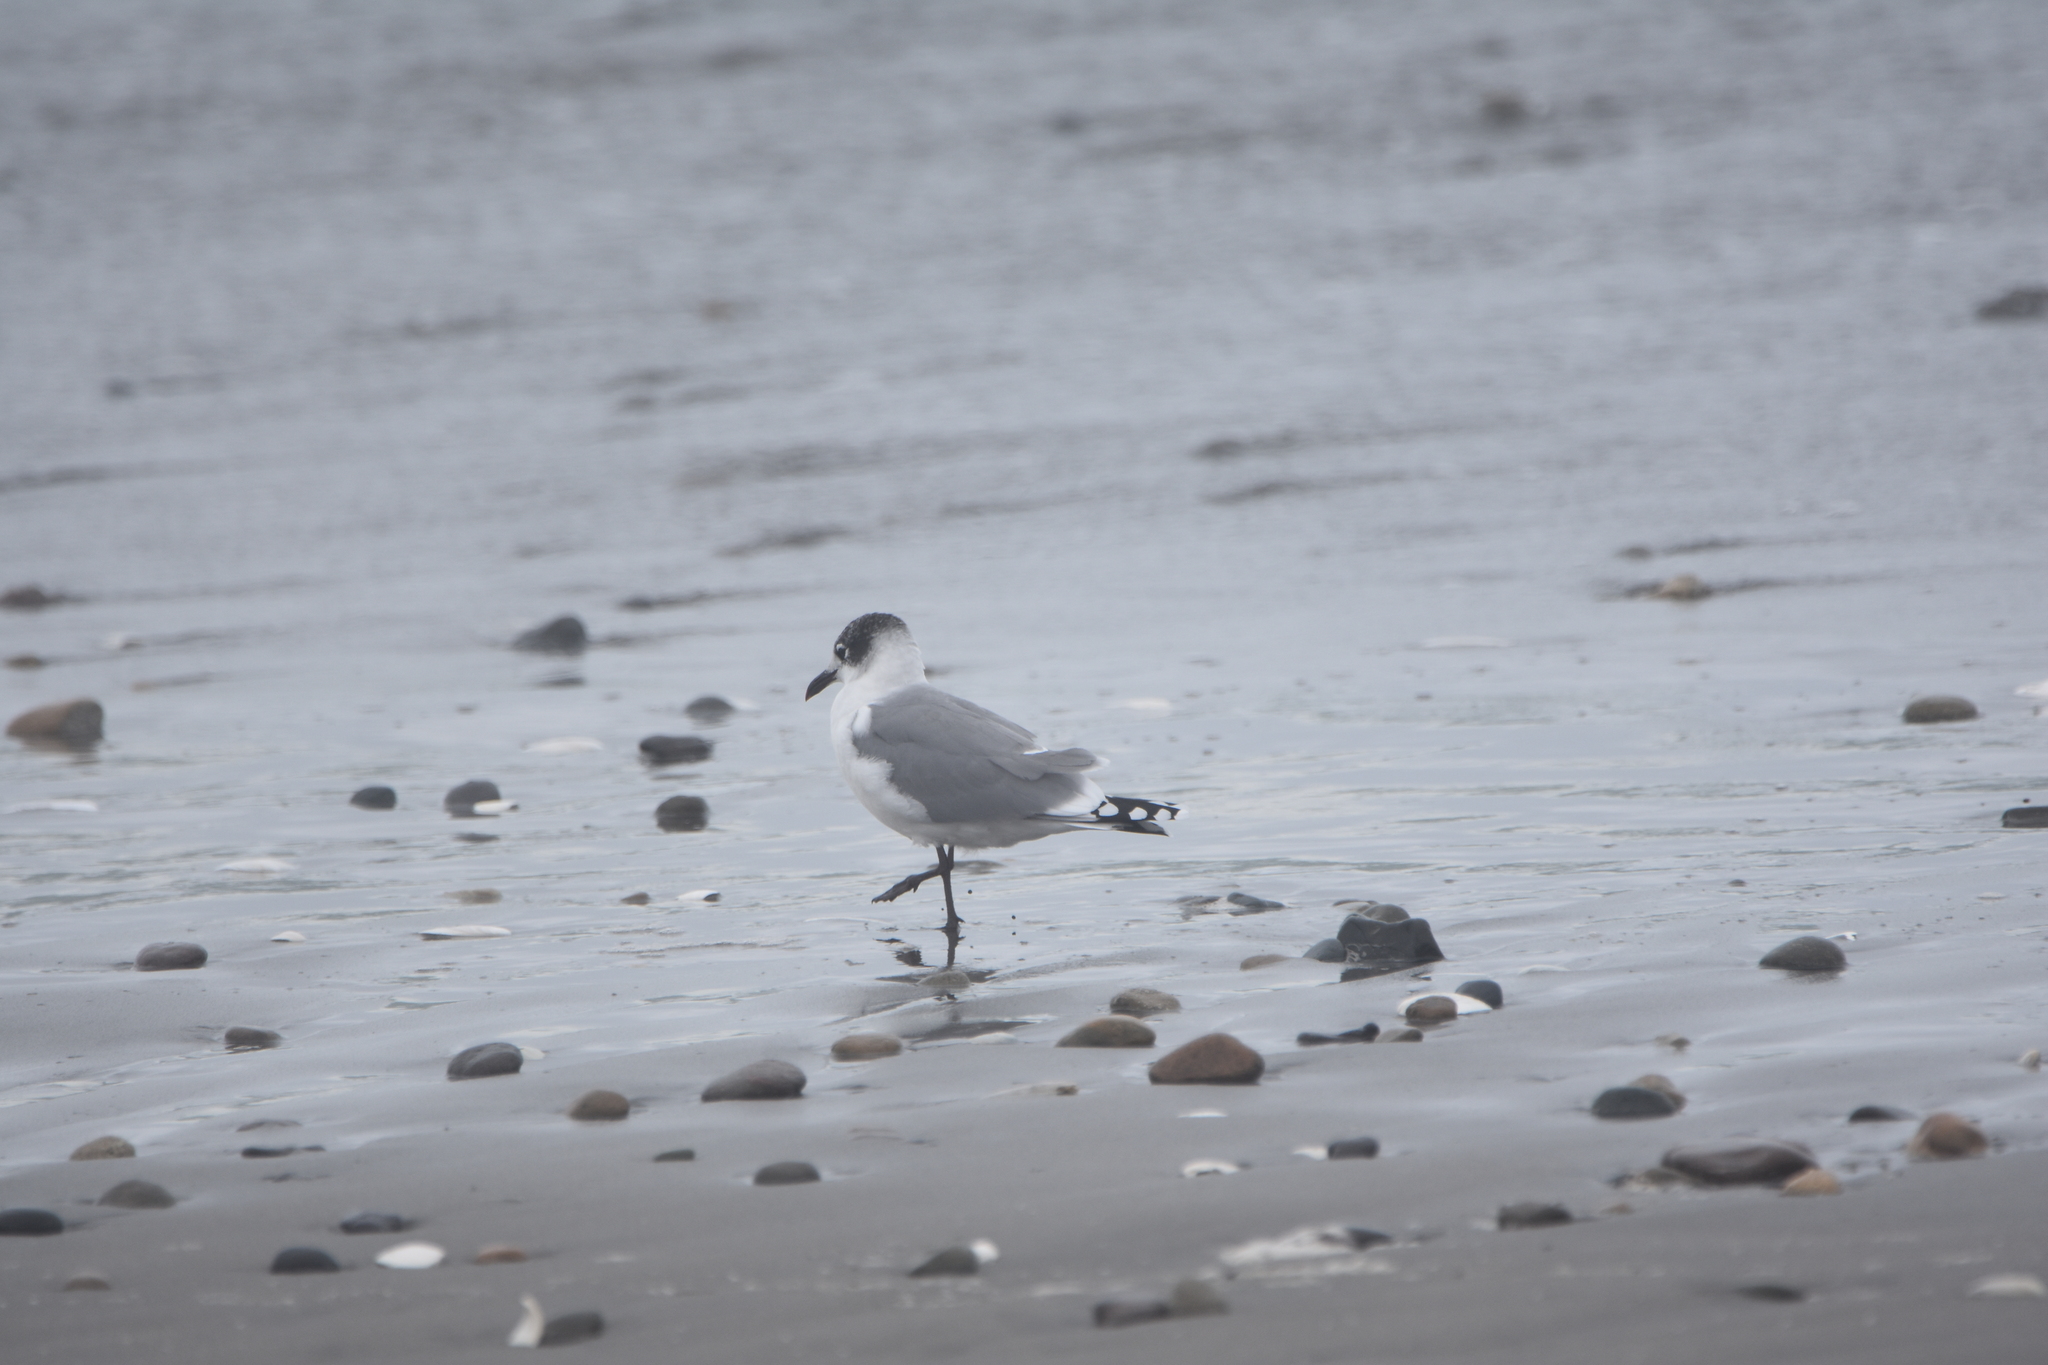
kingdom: Animalia
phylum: Chordata
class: Aves
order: Charadriiformes
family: Laridae
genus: Leucophaeus
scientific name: Leucophaeus pipixcan
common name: Franklin's gull
